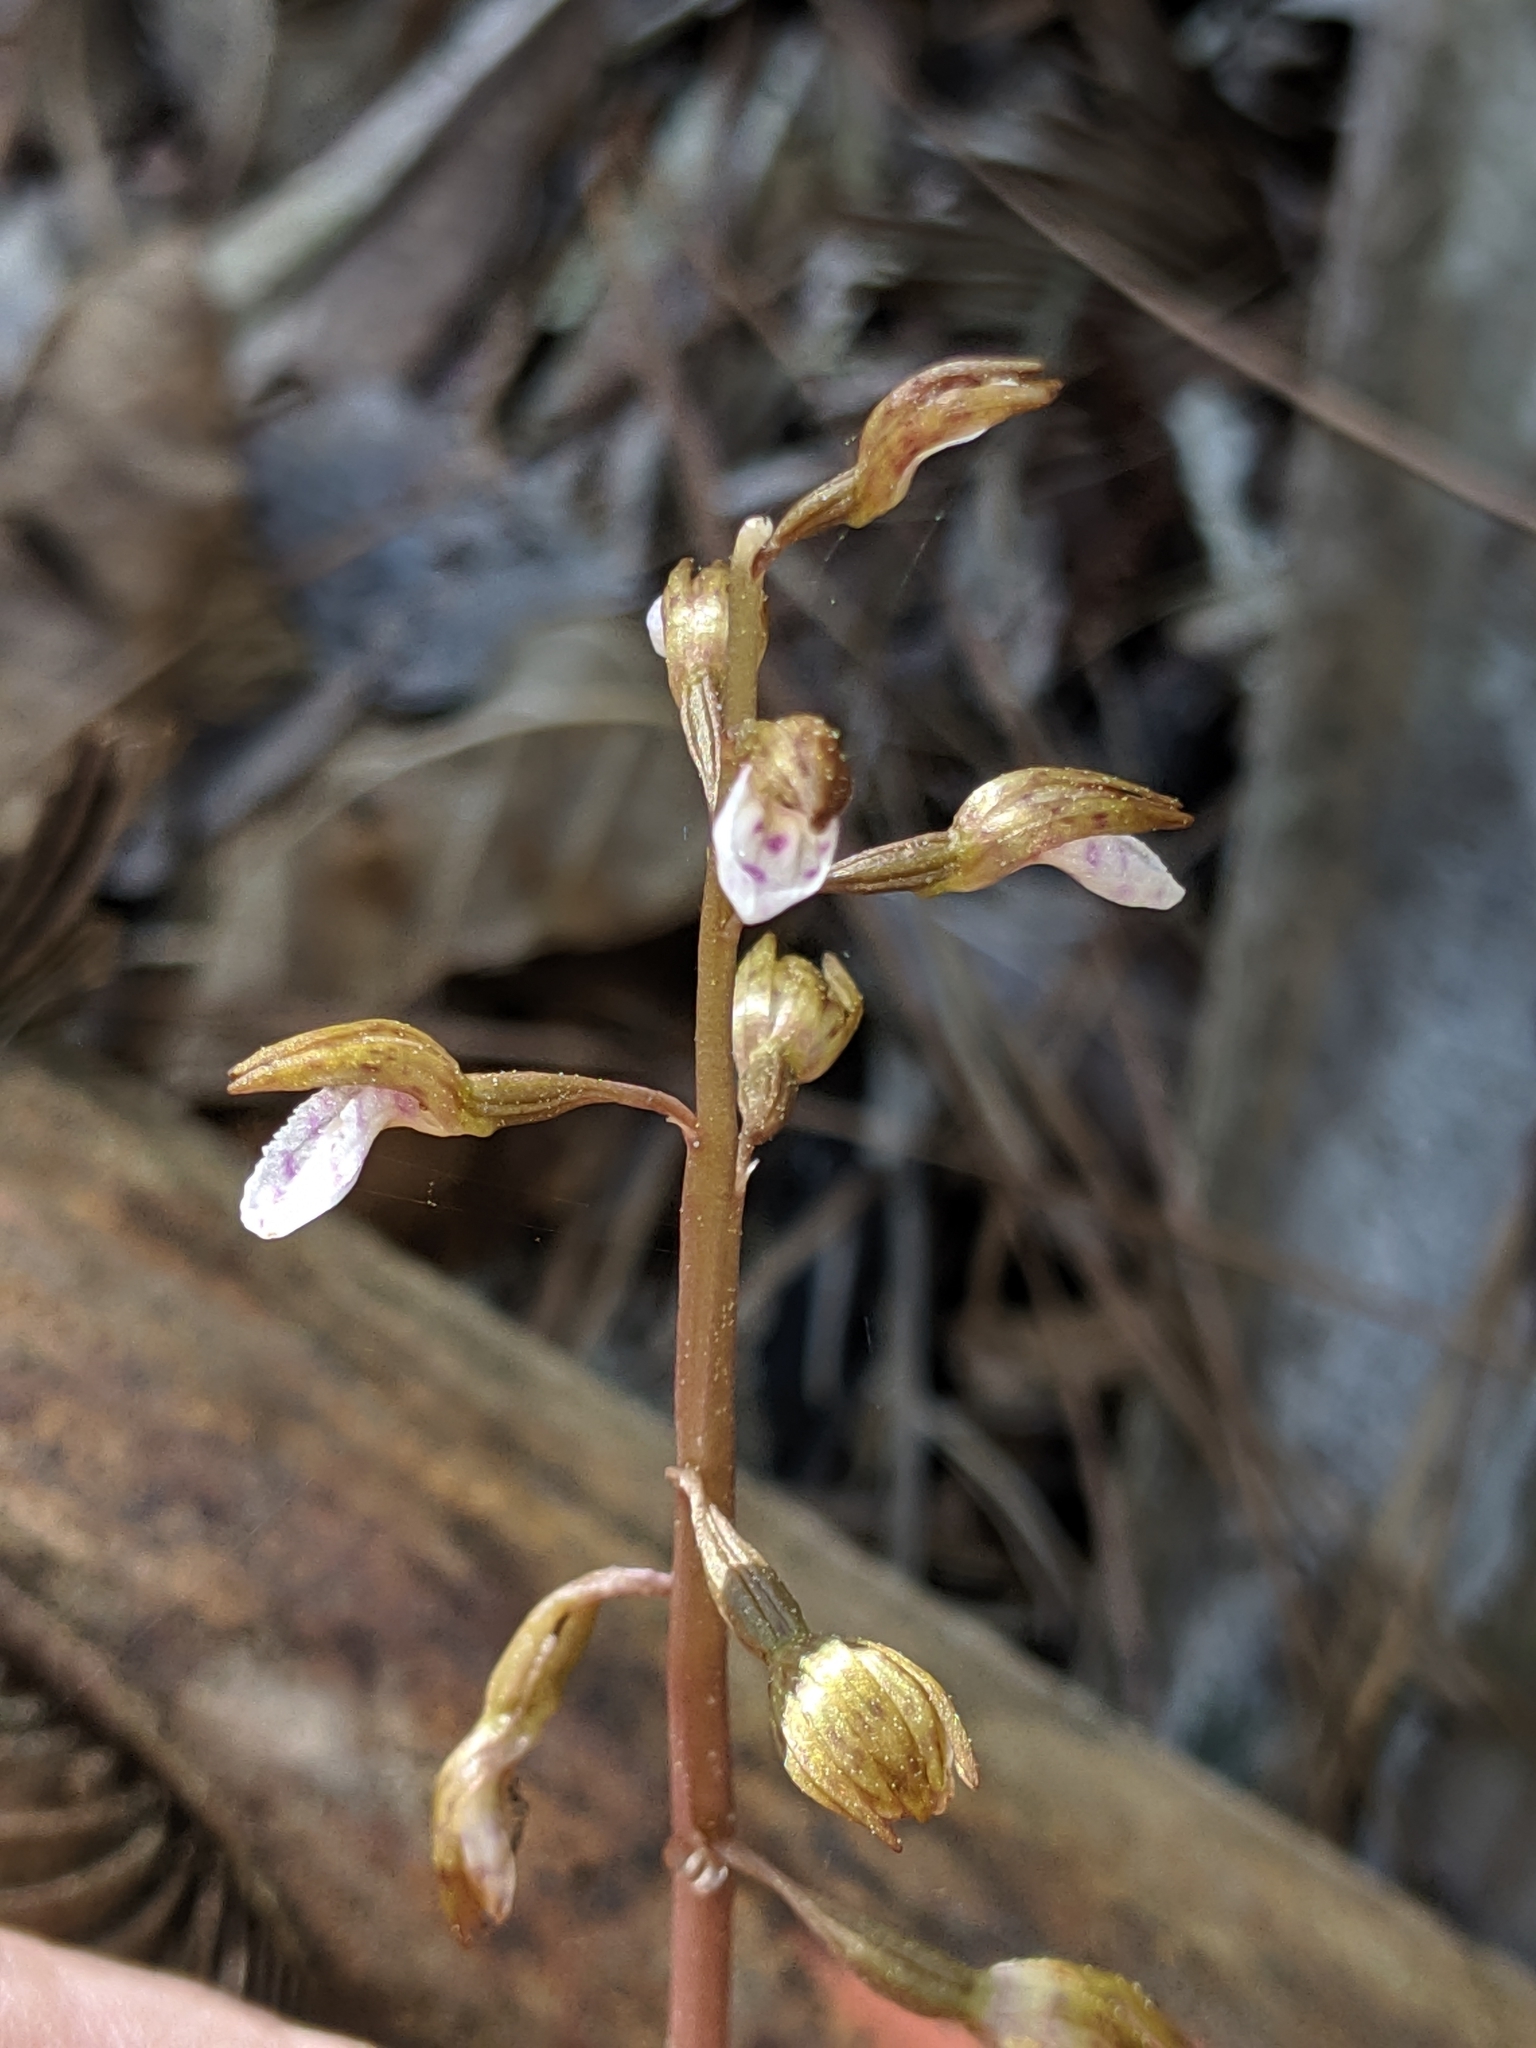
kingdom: Plantae
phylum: Tracheophyta
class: Liliopsida
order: Asparagales
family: Orchidaceae
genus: Corallorhiza
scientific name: Corallorhiza wisteriana
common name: Spring coralroot
